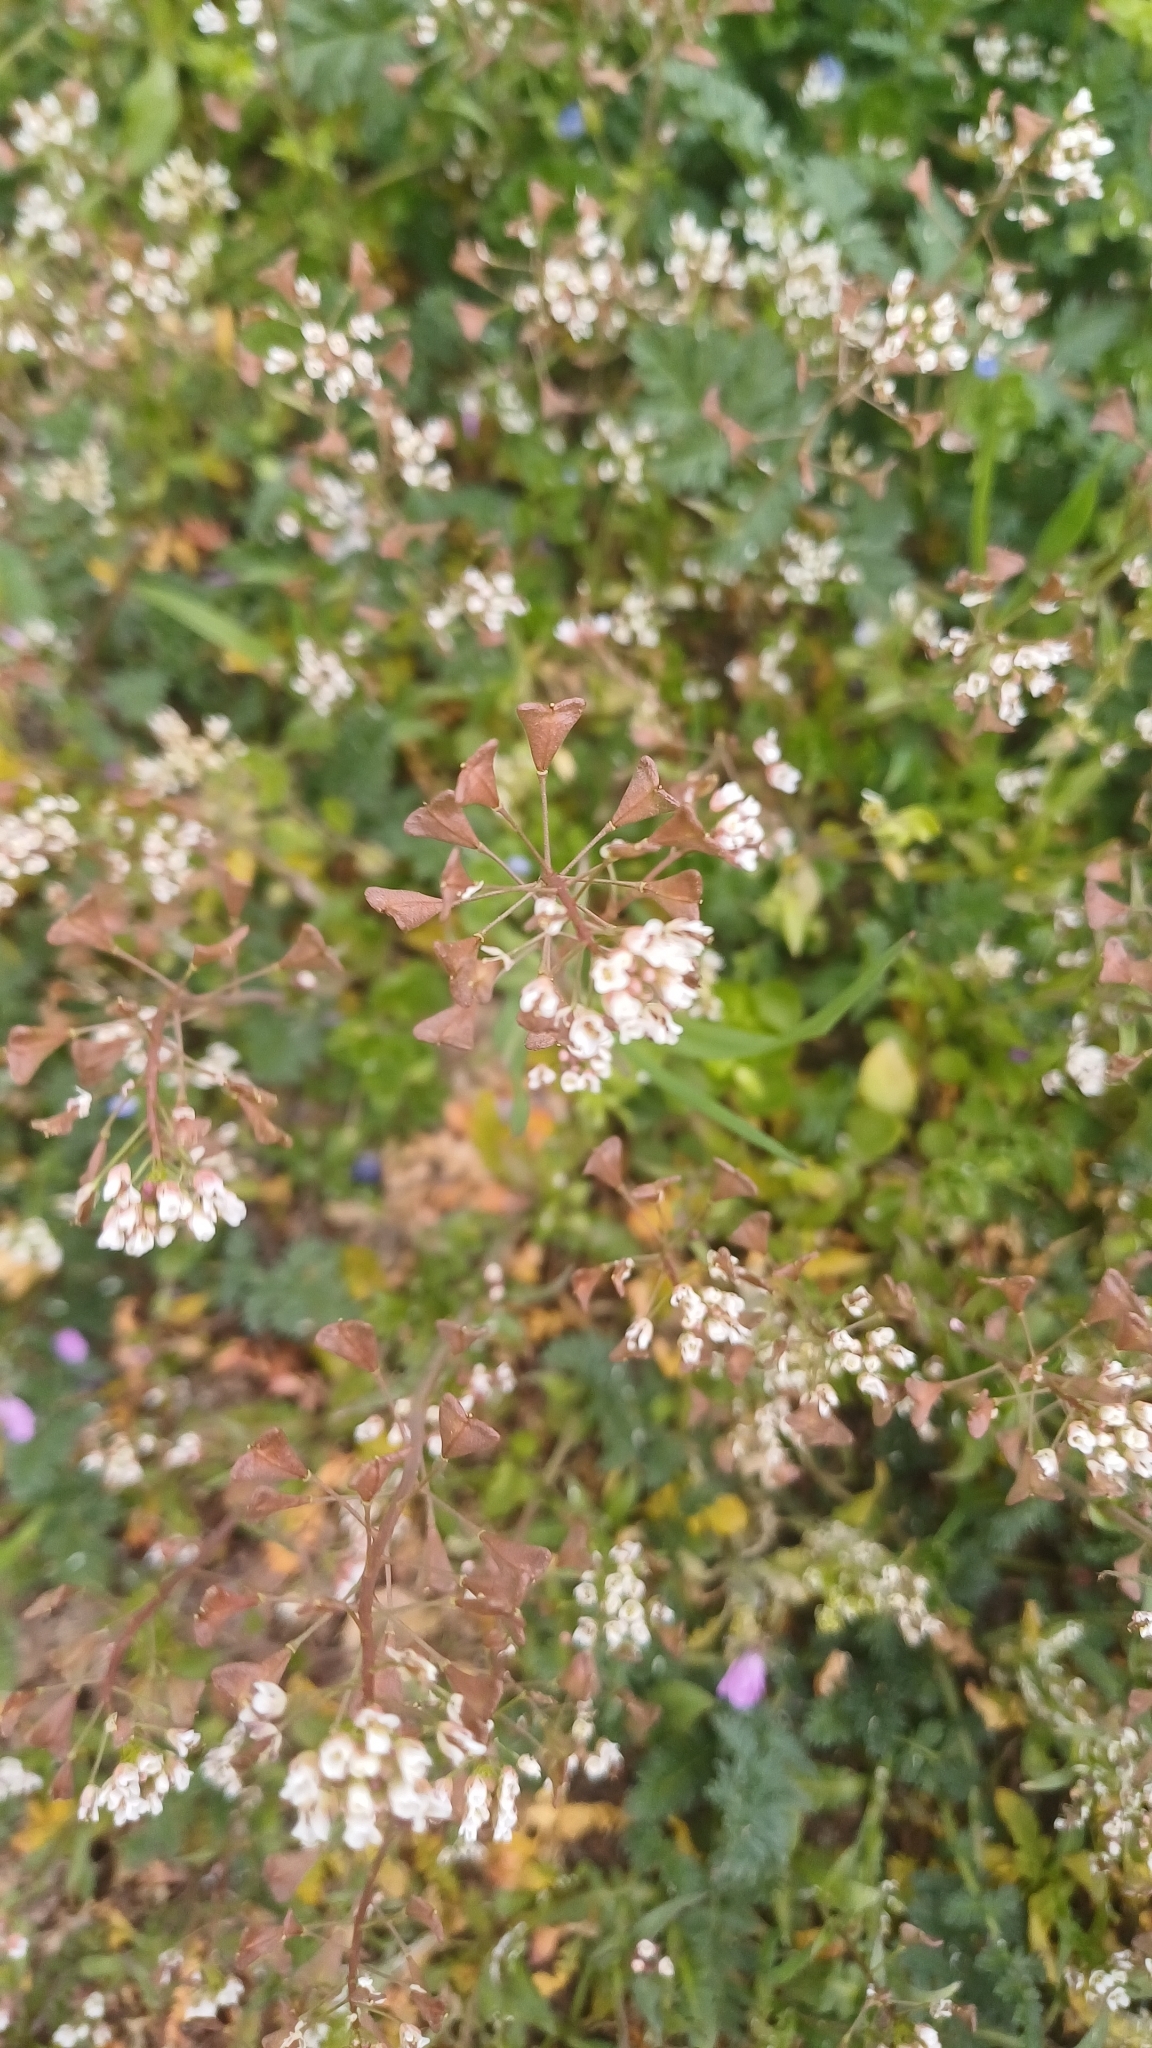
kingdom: Plantae
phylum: Tracheophyta
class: Magnoliopsida
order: Brassicales
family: Brassicaceae
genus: Capsella
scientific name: Capsella bursa-pastoris
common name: Shepherd's purse
